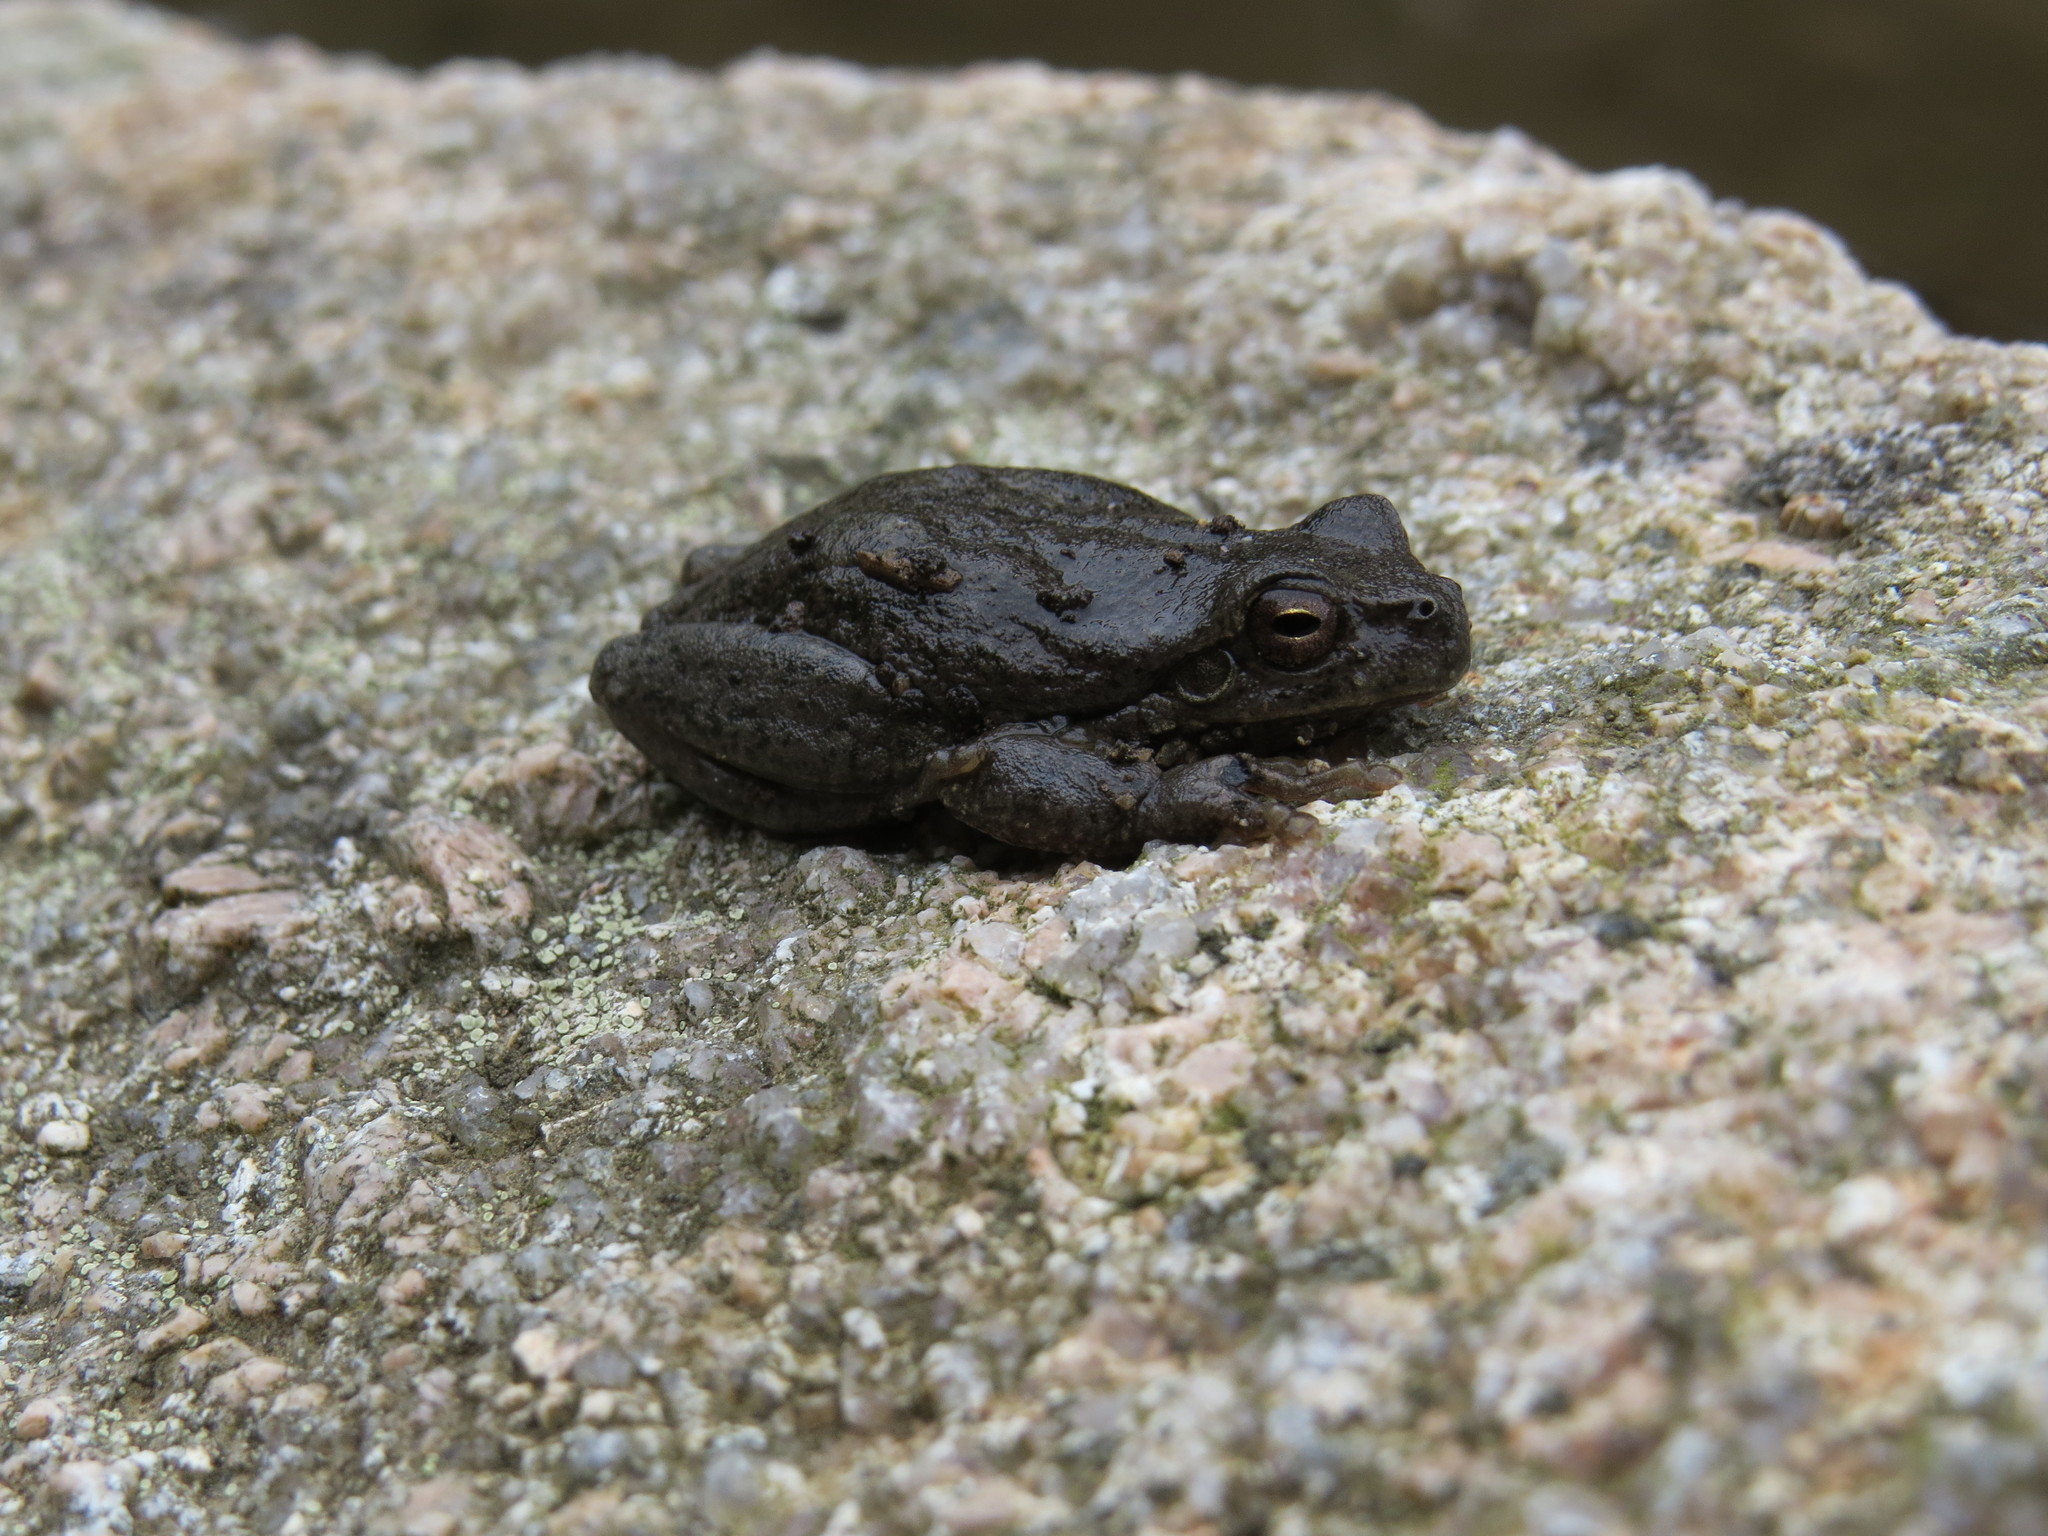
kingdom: Animalia
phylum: Chordata
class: Amphibia
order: Anura
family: Hylidae
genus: Hyla
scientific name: Hyla sarda
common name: Sardinian tree frog
